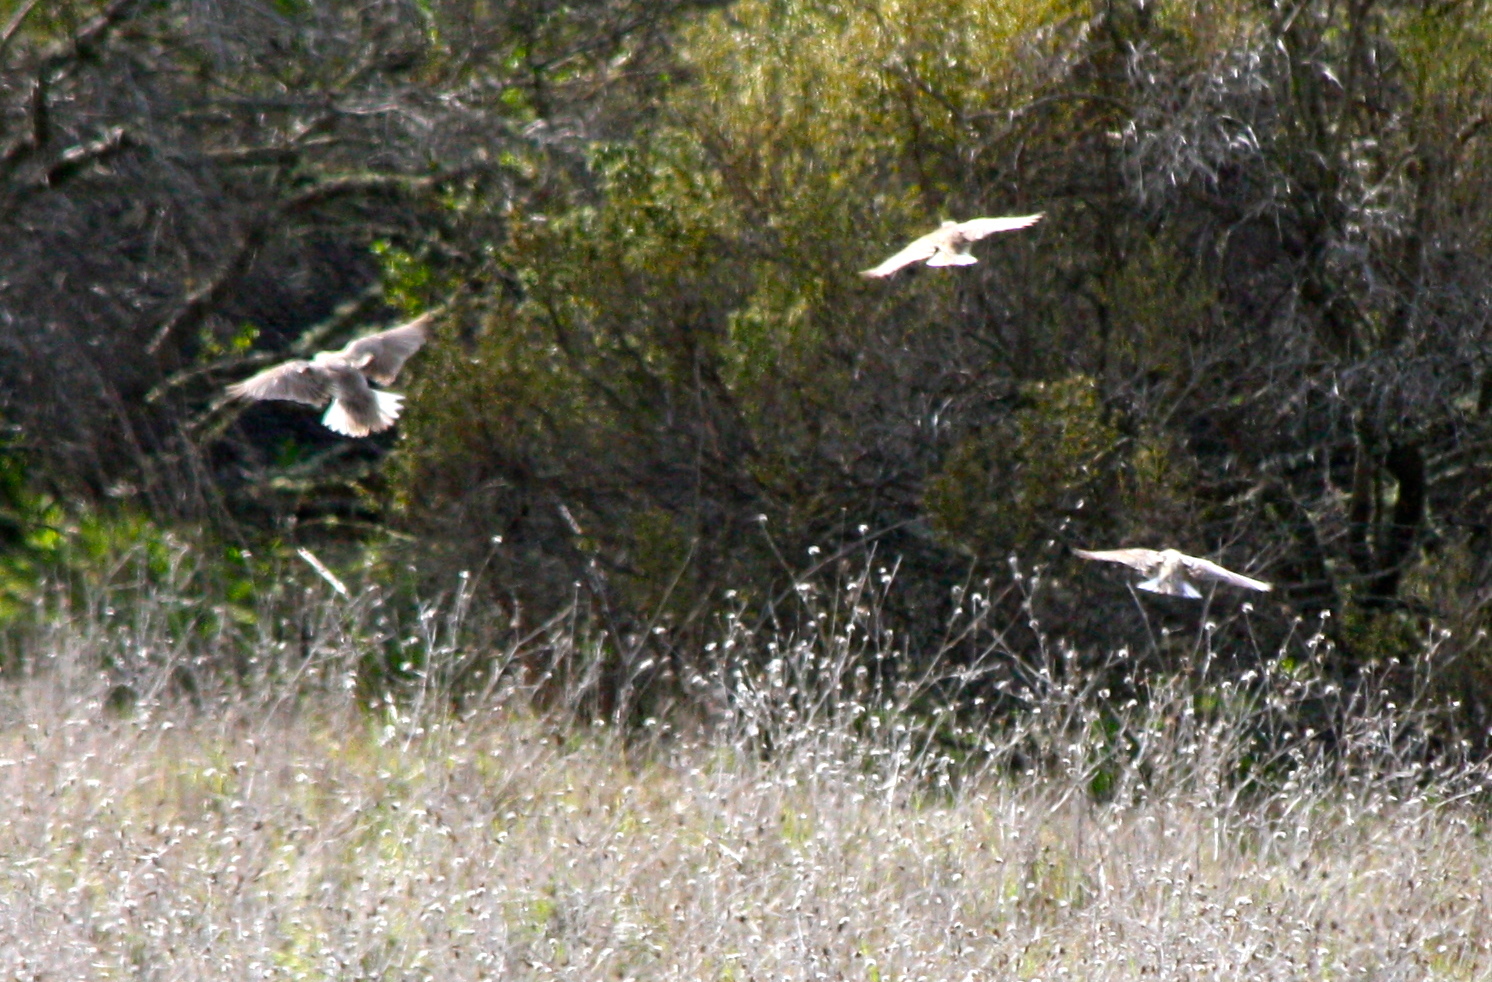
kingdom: Animalia
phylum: Chordata
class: Aves
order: Passeriformes
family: Icteridae
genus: Sturnella
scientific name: Sturnella neglecta
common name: Western meadowlark
